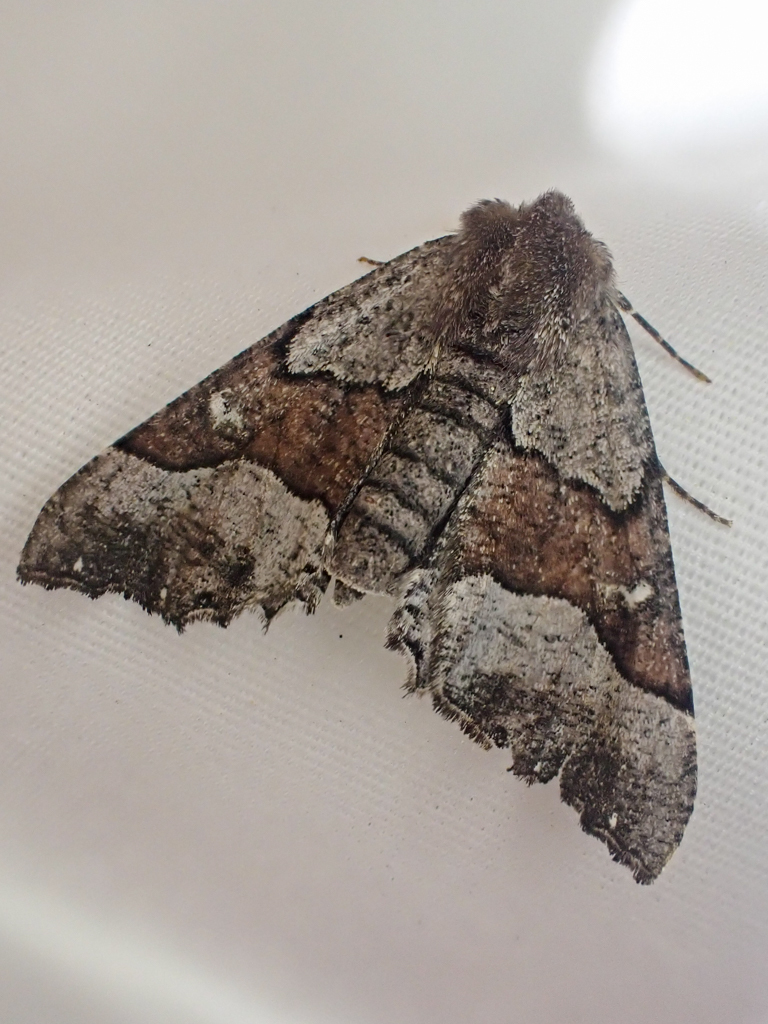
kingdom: Animalia
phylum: Arthropoda
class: Insecta
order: Lepidoptera
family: Geometridae
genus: Pero
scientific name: Pero behrensaria
